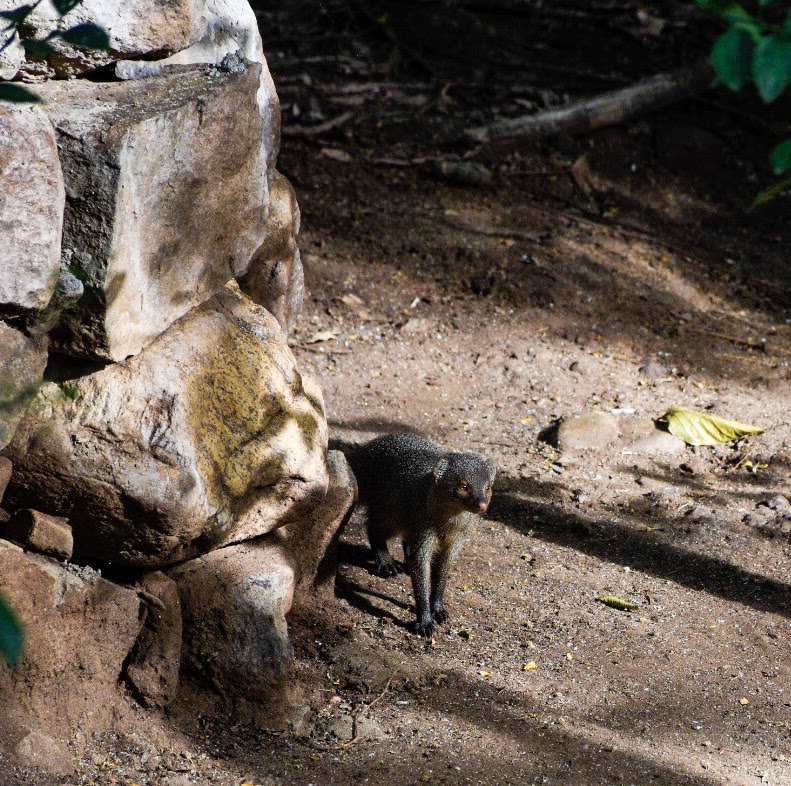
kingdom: Animalia
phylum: Chordata
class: Mammalia
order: Carnivora
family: Herpestidae
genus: Herpestes
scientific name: Herpestes edwardsi
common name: Indian gray mongoose
